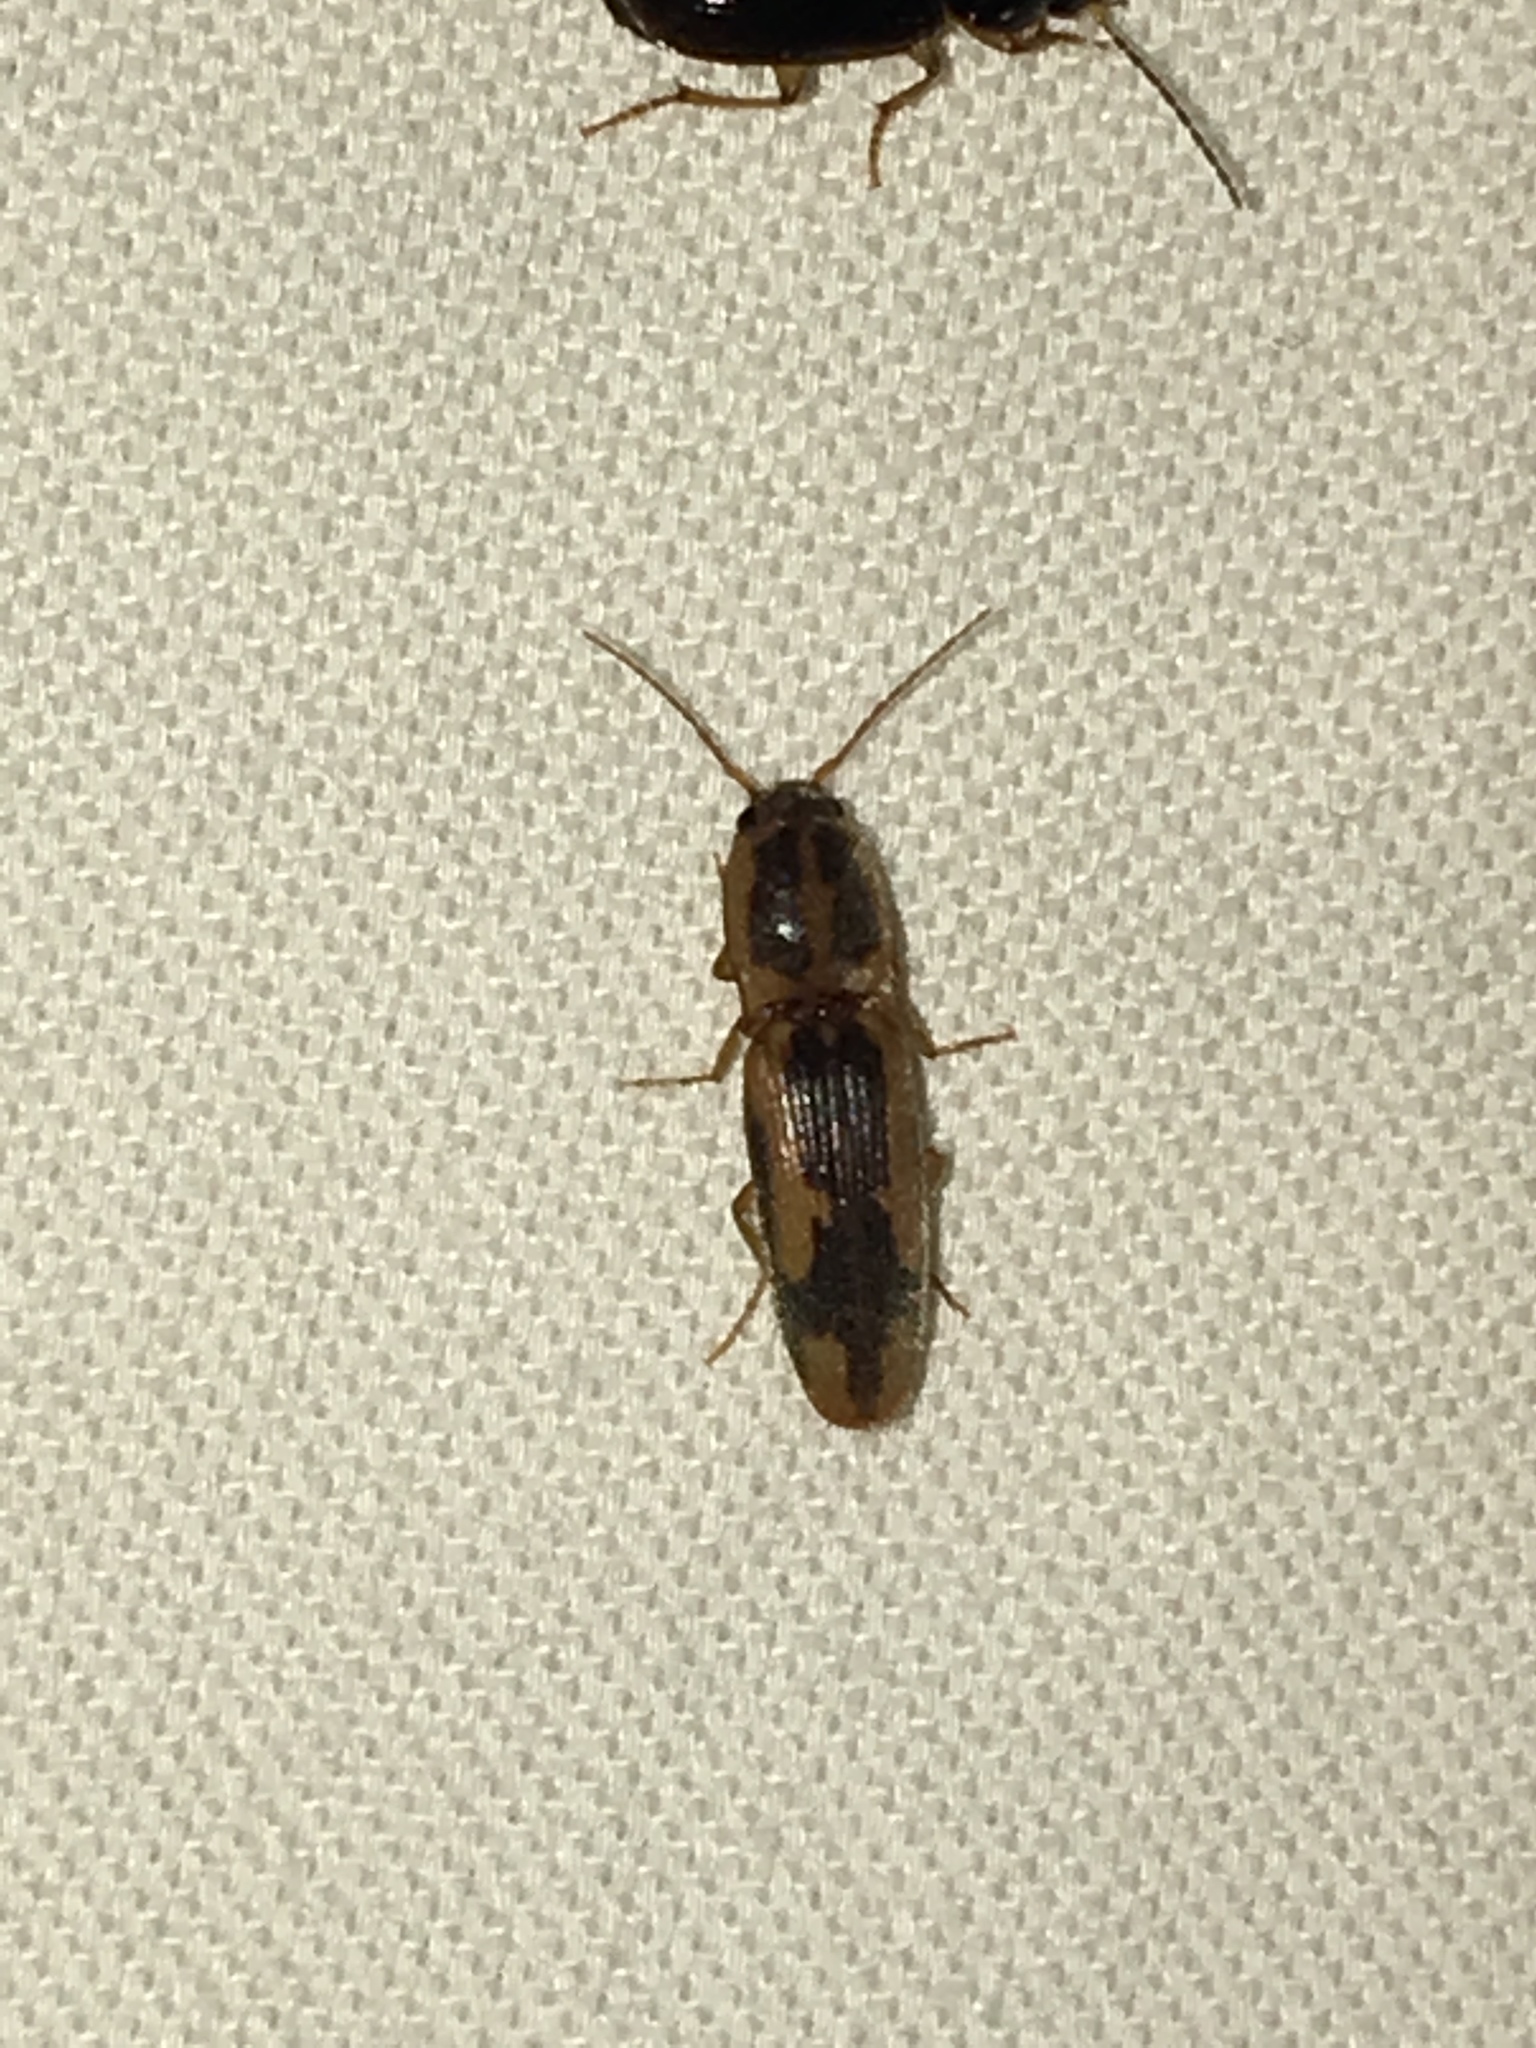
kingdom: Animalia
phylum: Arthropoda
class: Insecta
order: Coleoptera
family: Elateridae
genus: Monocrepidius
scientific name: Monocrepidius
